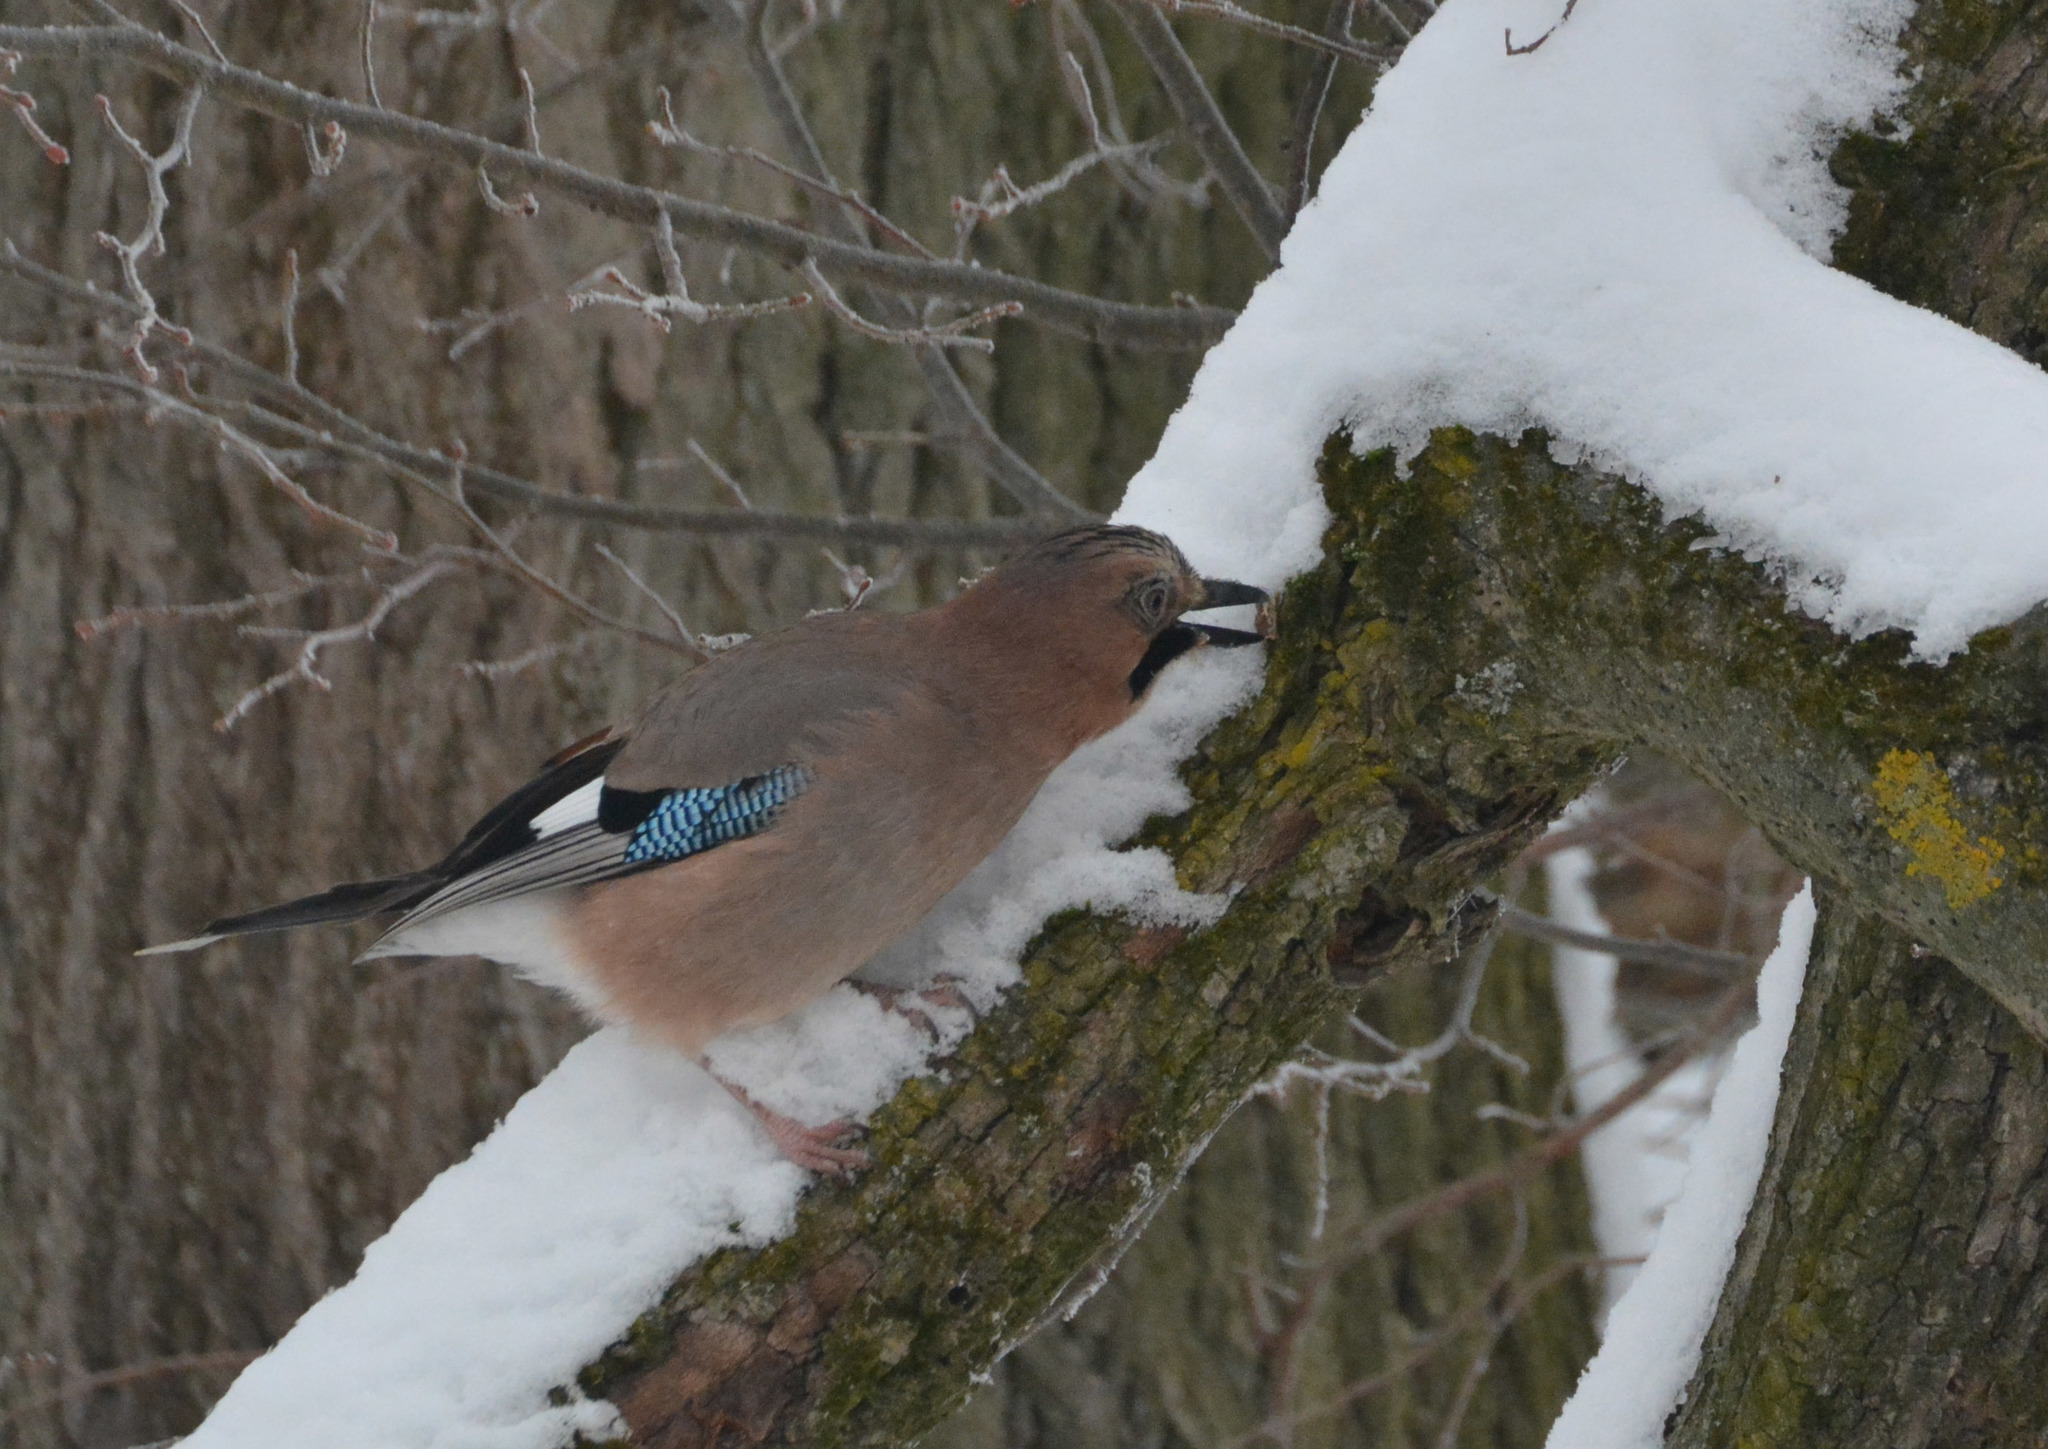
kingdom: Animalia
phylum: Chordata
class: Aves
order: Passeriformes
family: Corvidae
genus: Garrulus
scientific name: Garrulus glandarius
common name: Eurasian jay
